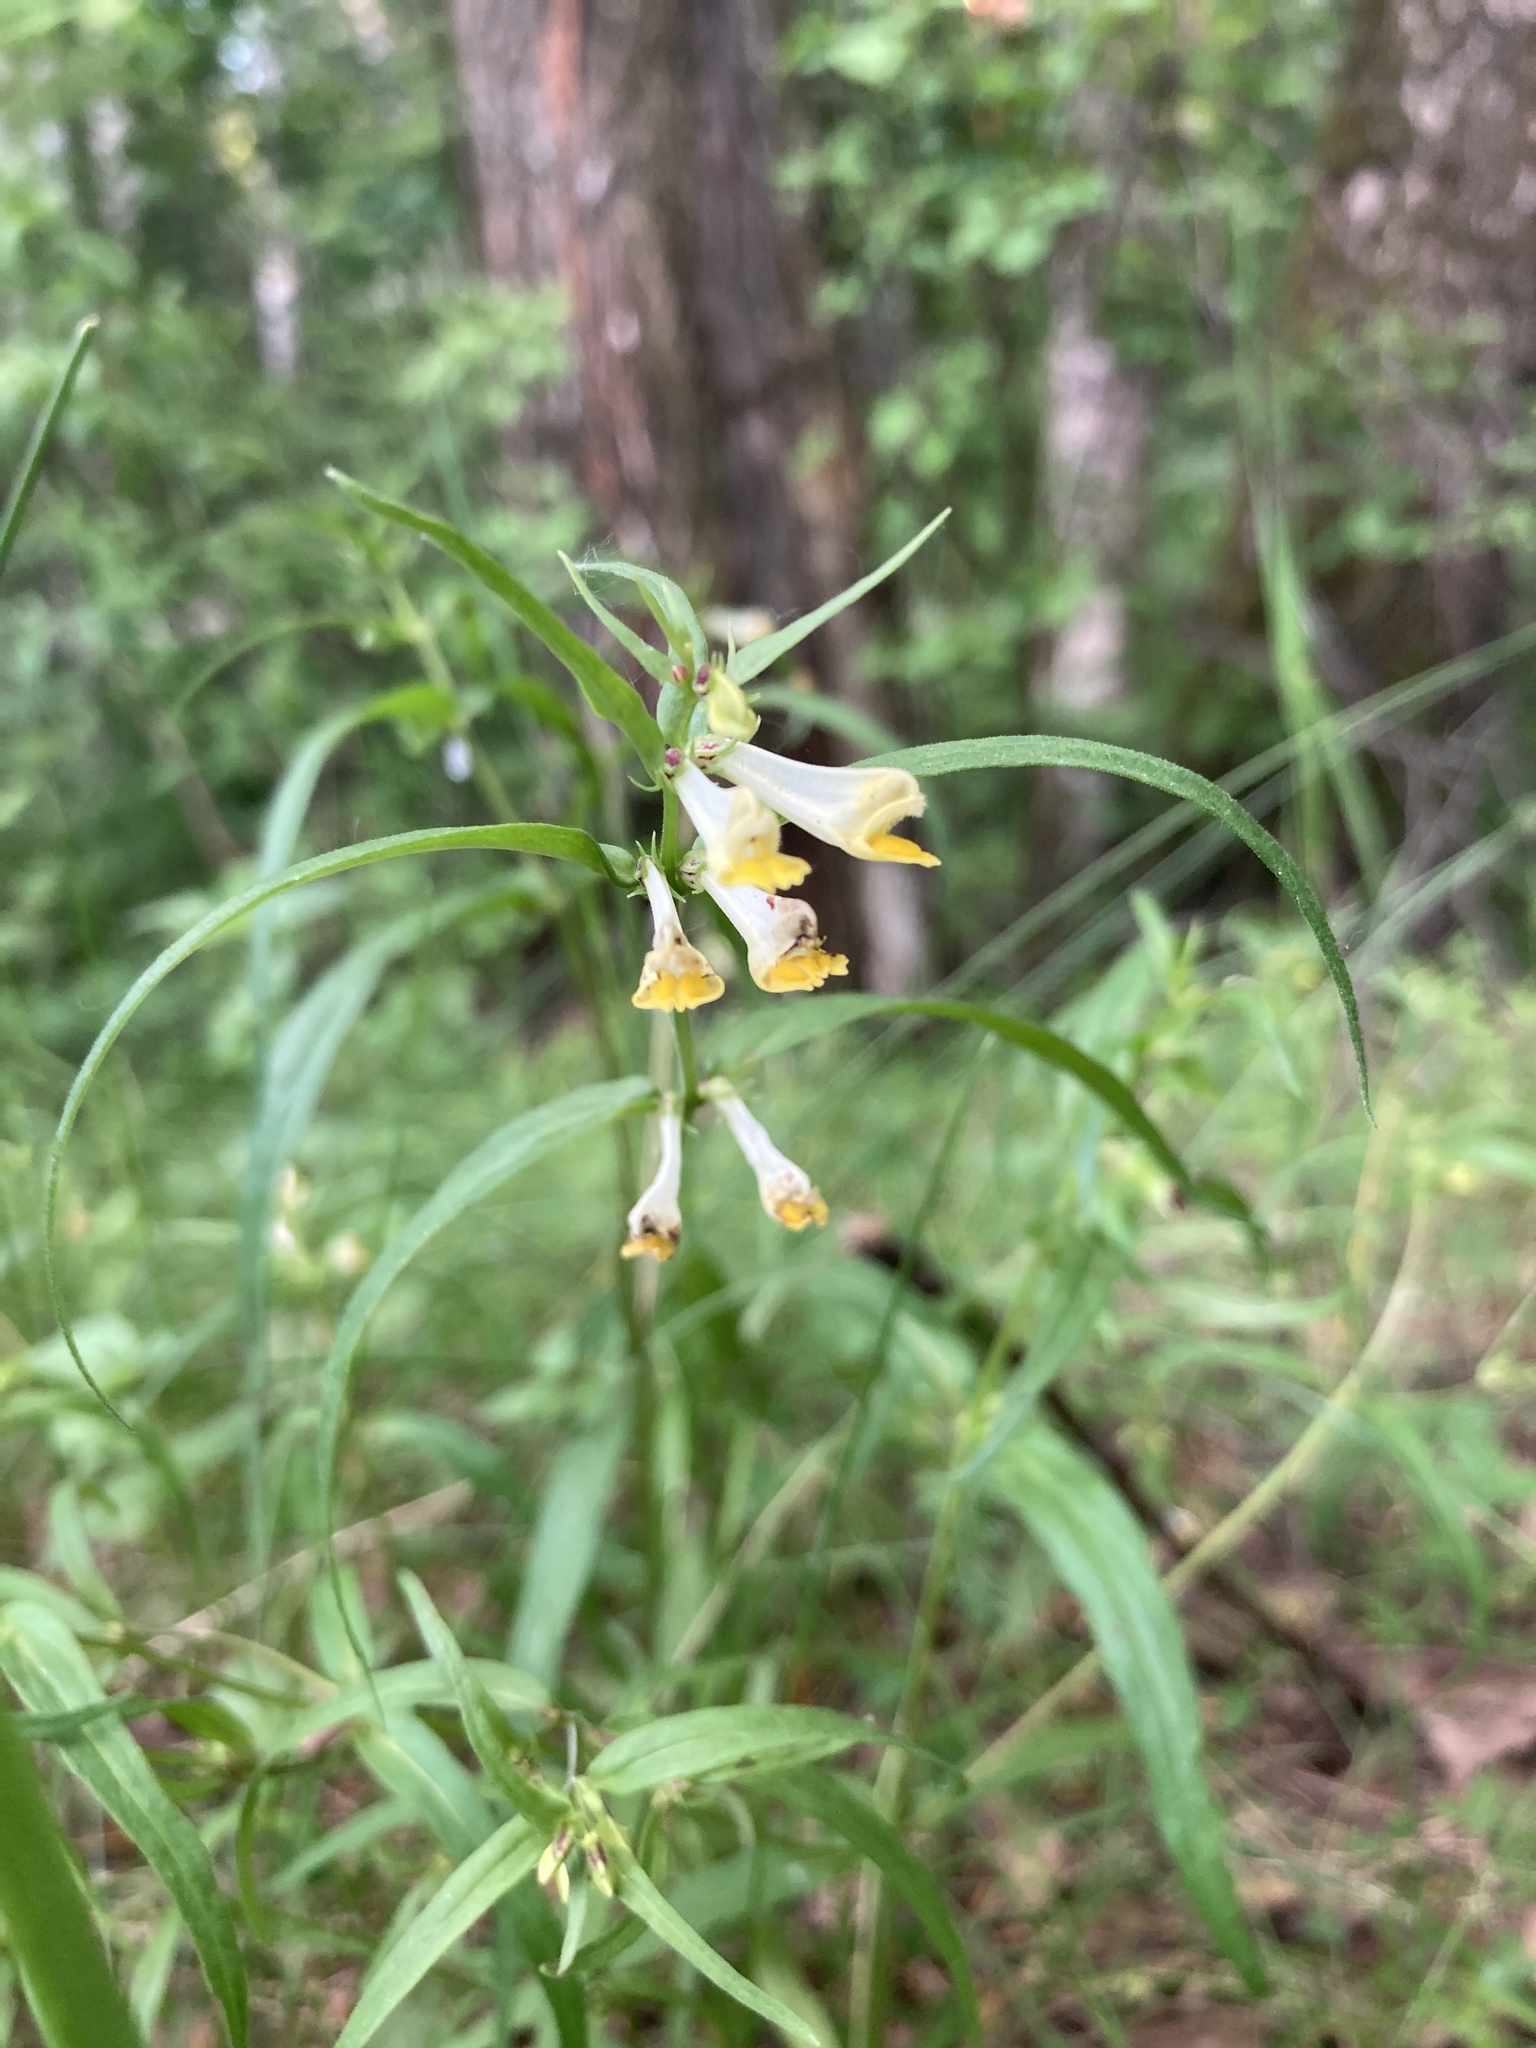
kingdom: Plantae
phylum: Tracheophyta
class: Magnoliopsida
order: Lamiales
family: Orobanchaceae
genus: Melampyrum
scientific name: Melampyrum pratense
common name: Common cow-wheat
